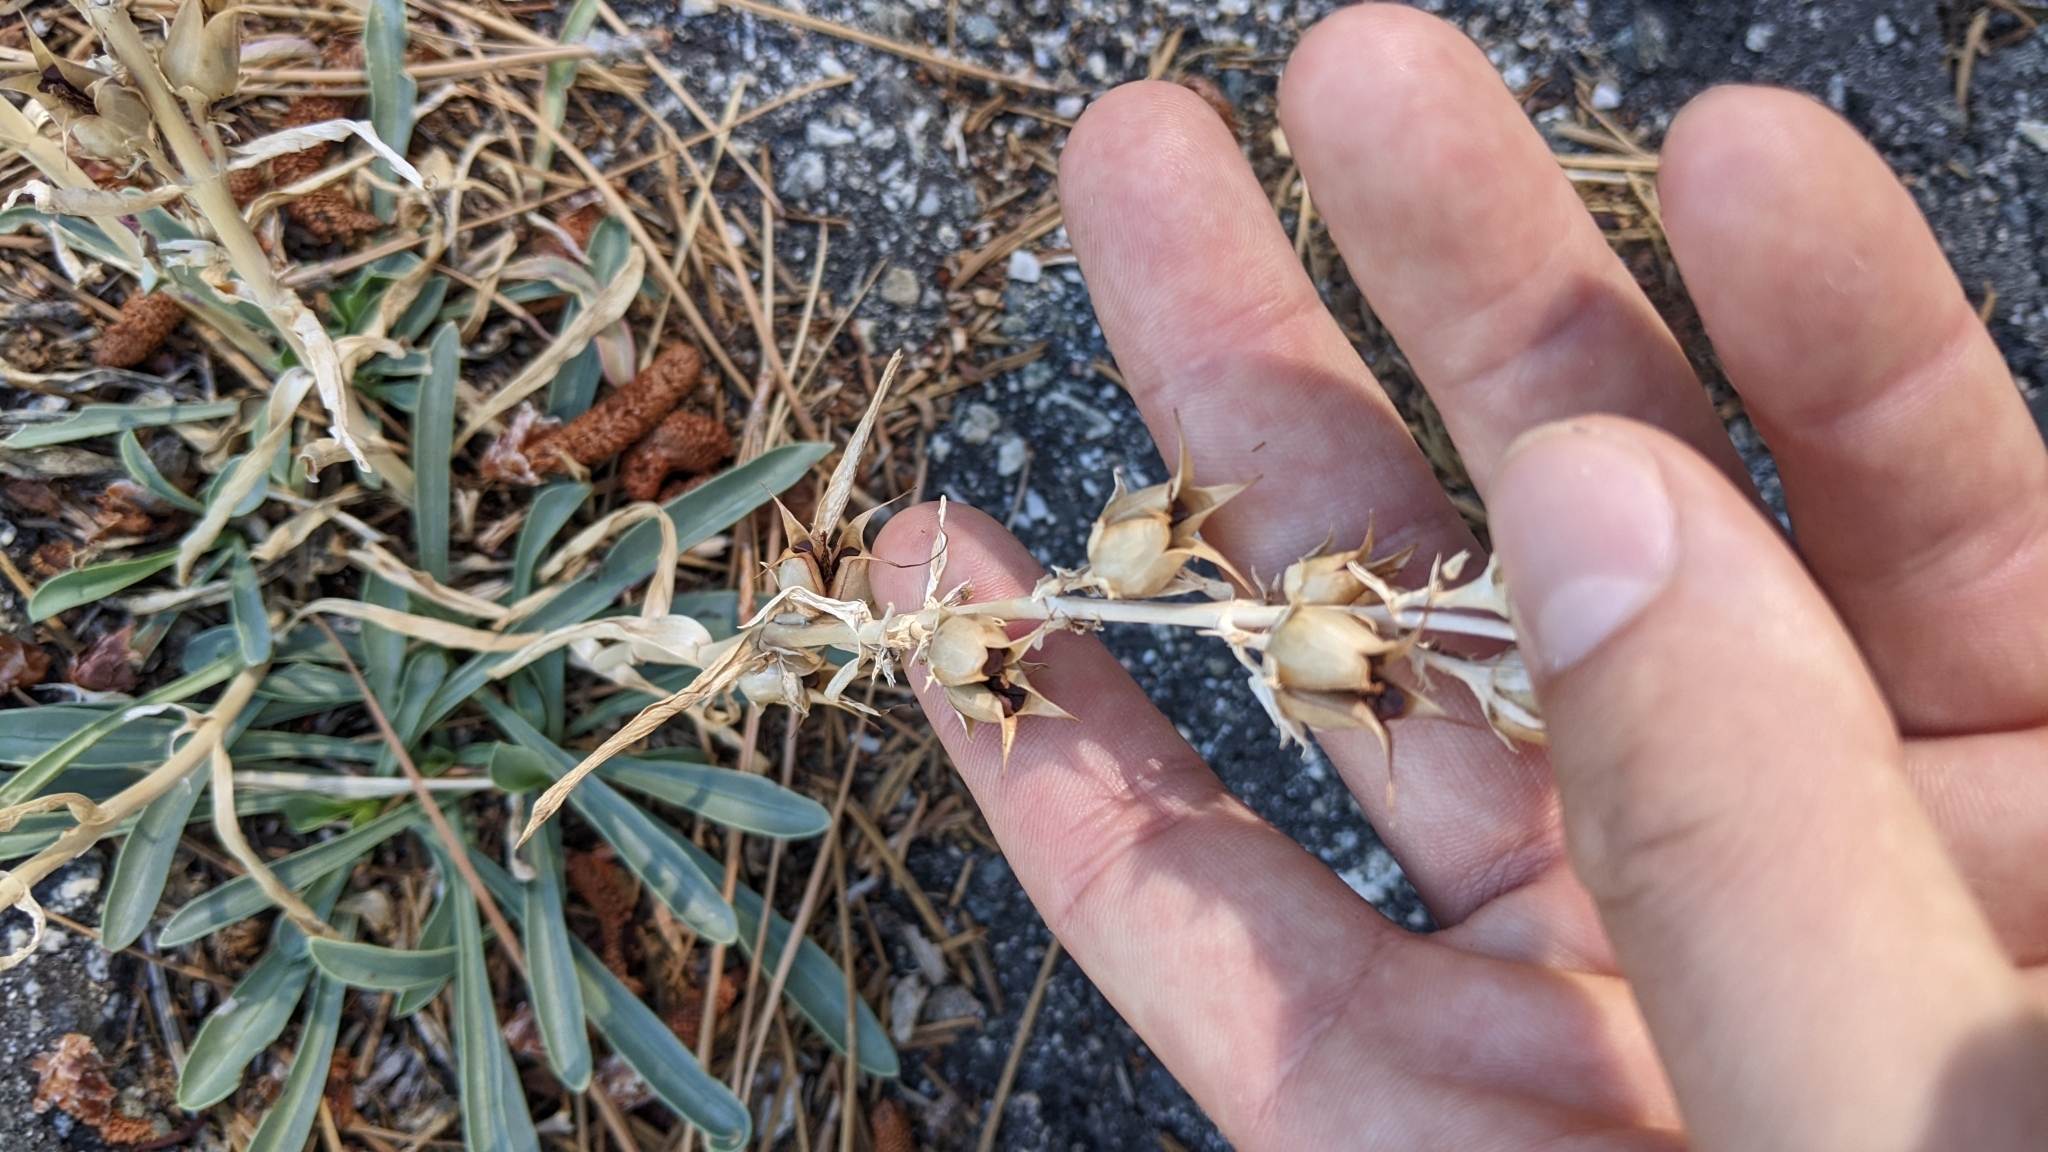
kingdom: Plantae
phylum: Tracheophyta
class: Magnoliopsida
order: Gentianales
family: Gentianaceae
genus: Frasera
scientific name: Frasera neglecta
